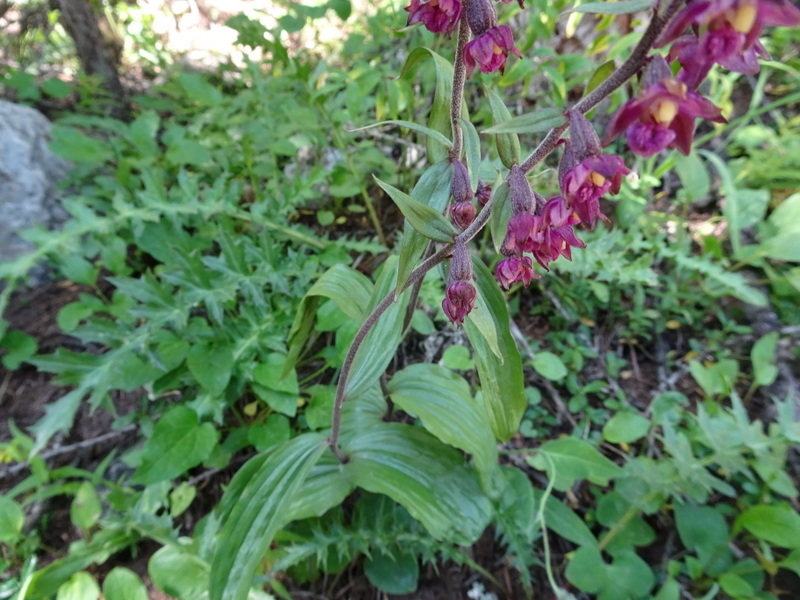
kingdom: Plantae
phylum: Tracheophyta
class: Liliopsida
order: Asparagales
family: Orchidaceae
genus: Epipactis
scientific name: Epipactis atrorubens
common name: Dark-red helleborine
